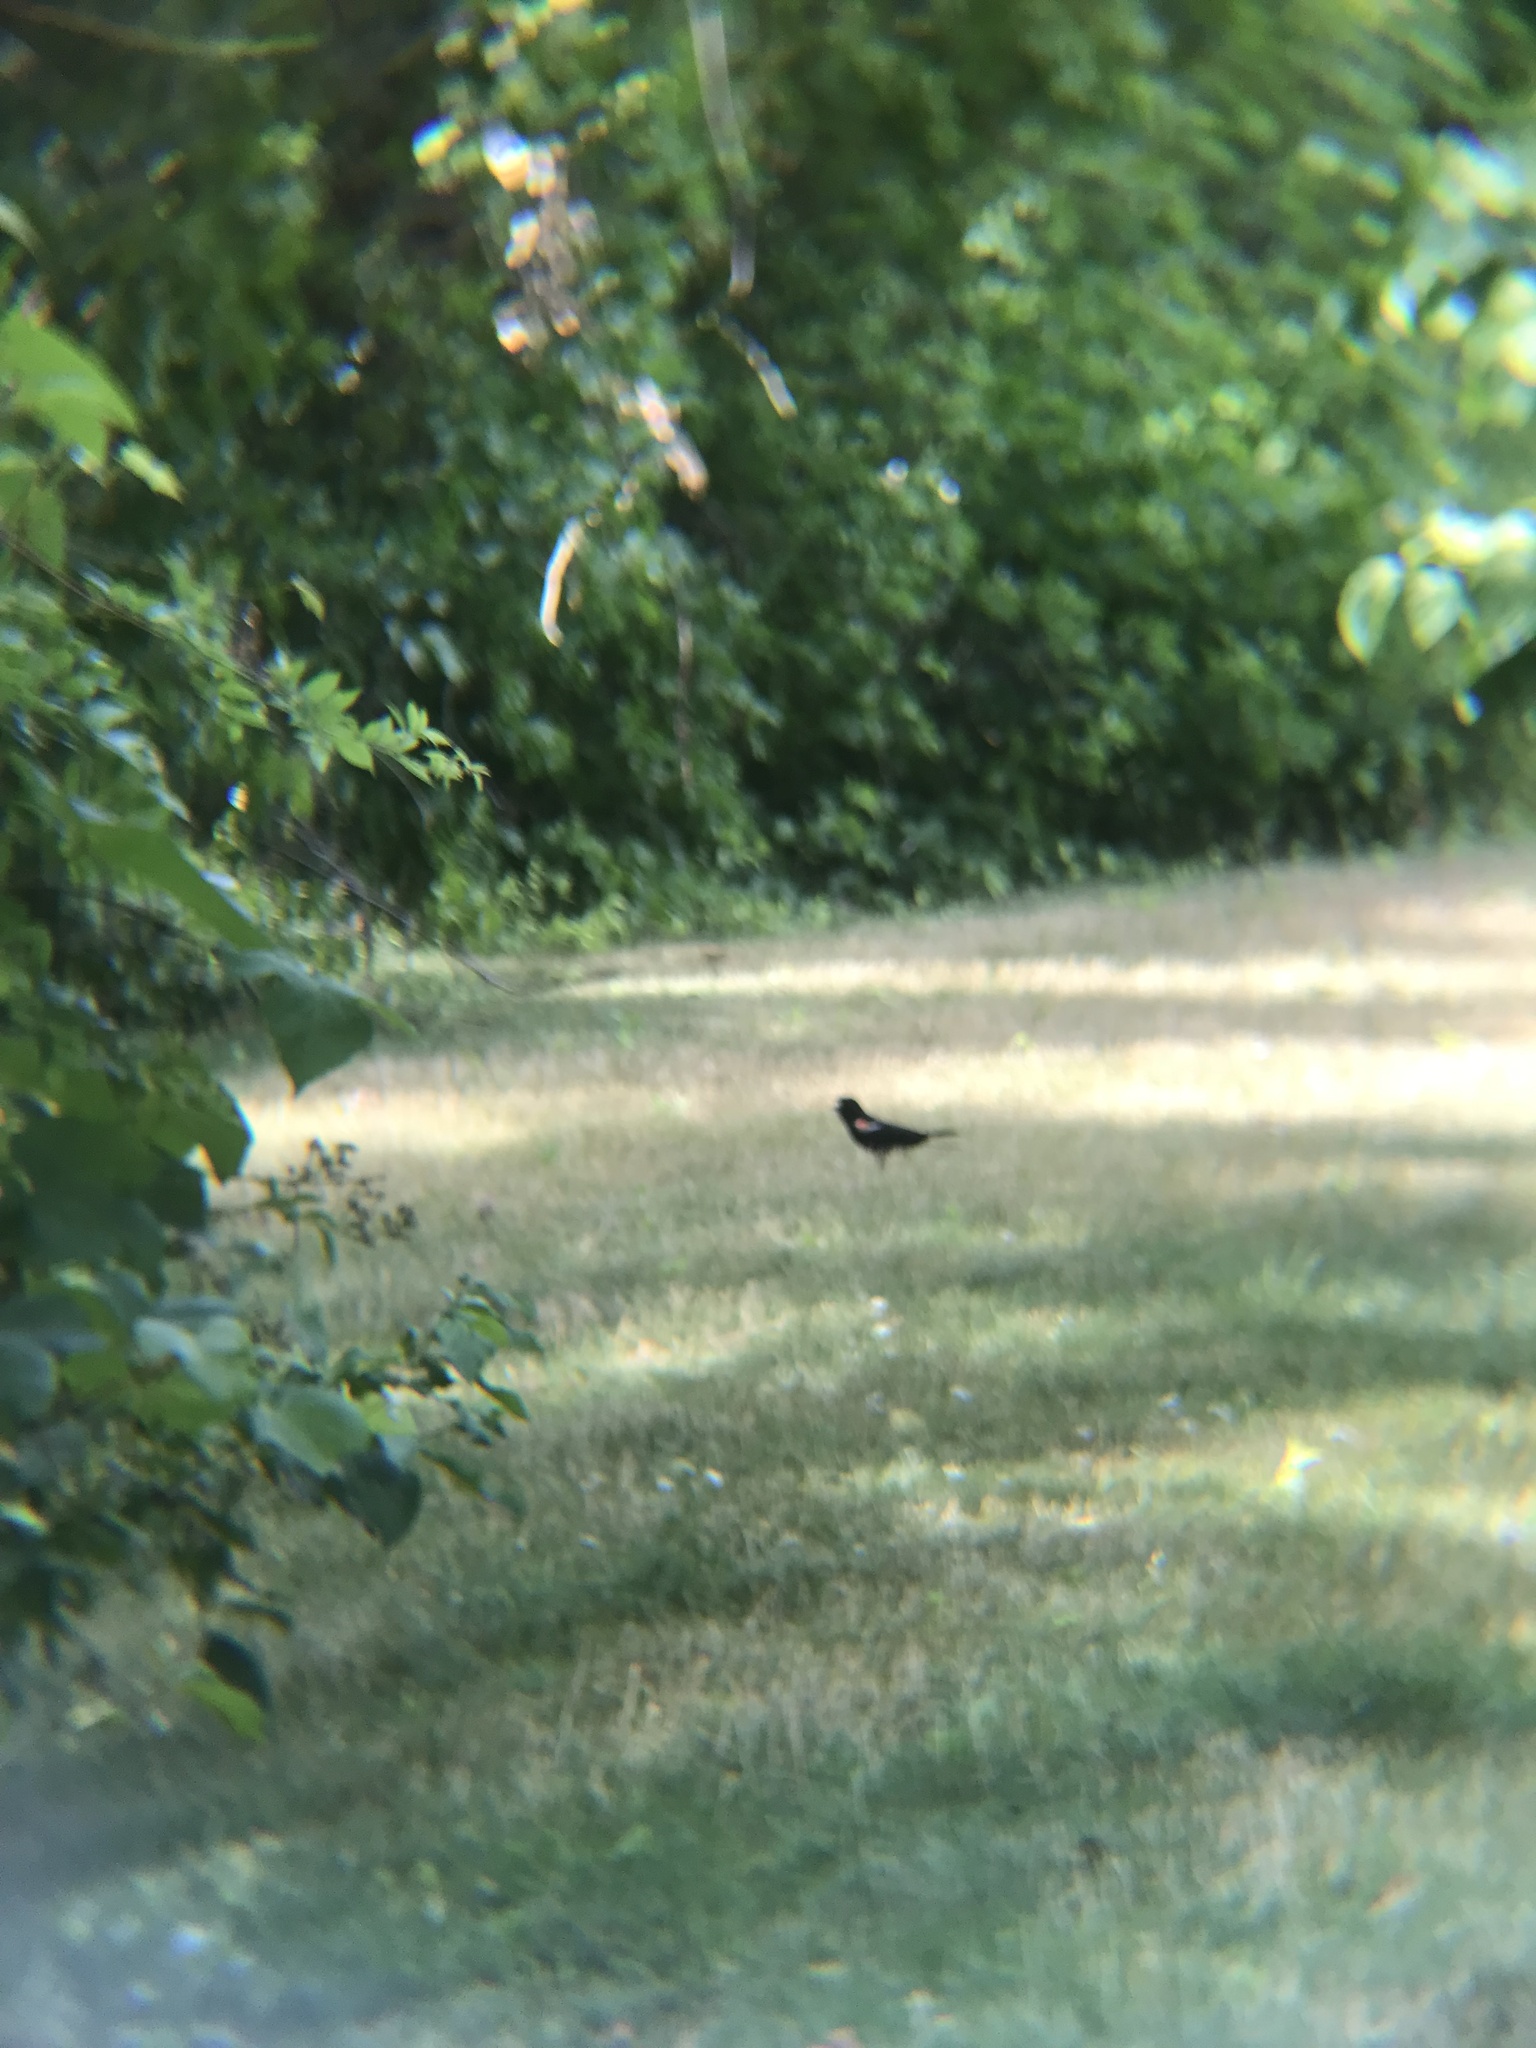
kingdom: Animalia
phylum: Chordata
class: Aves
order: Passeriformes
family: Icteridae
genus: Agelaius
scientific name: Agelaius phoeniceus
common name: Red-winged blackbird
